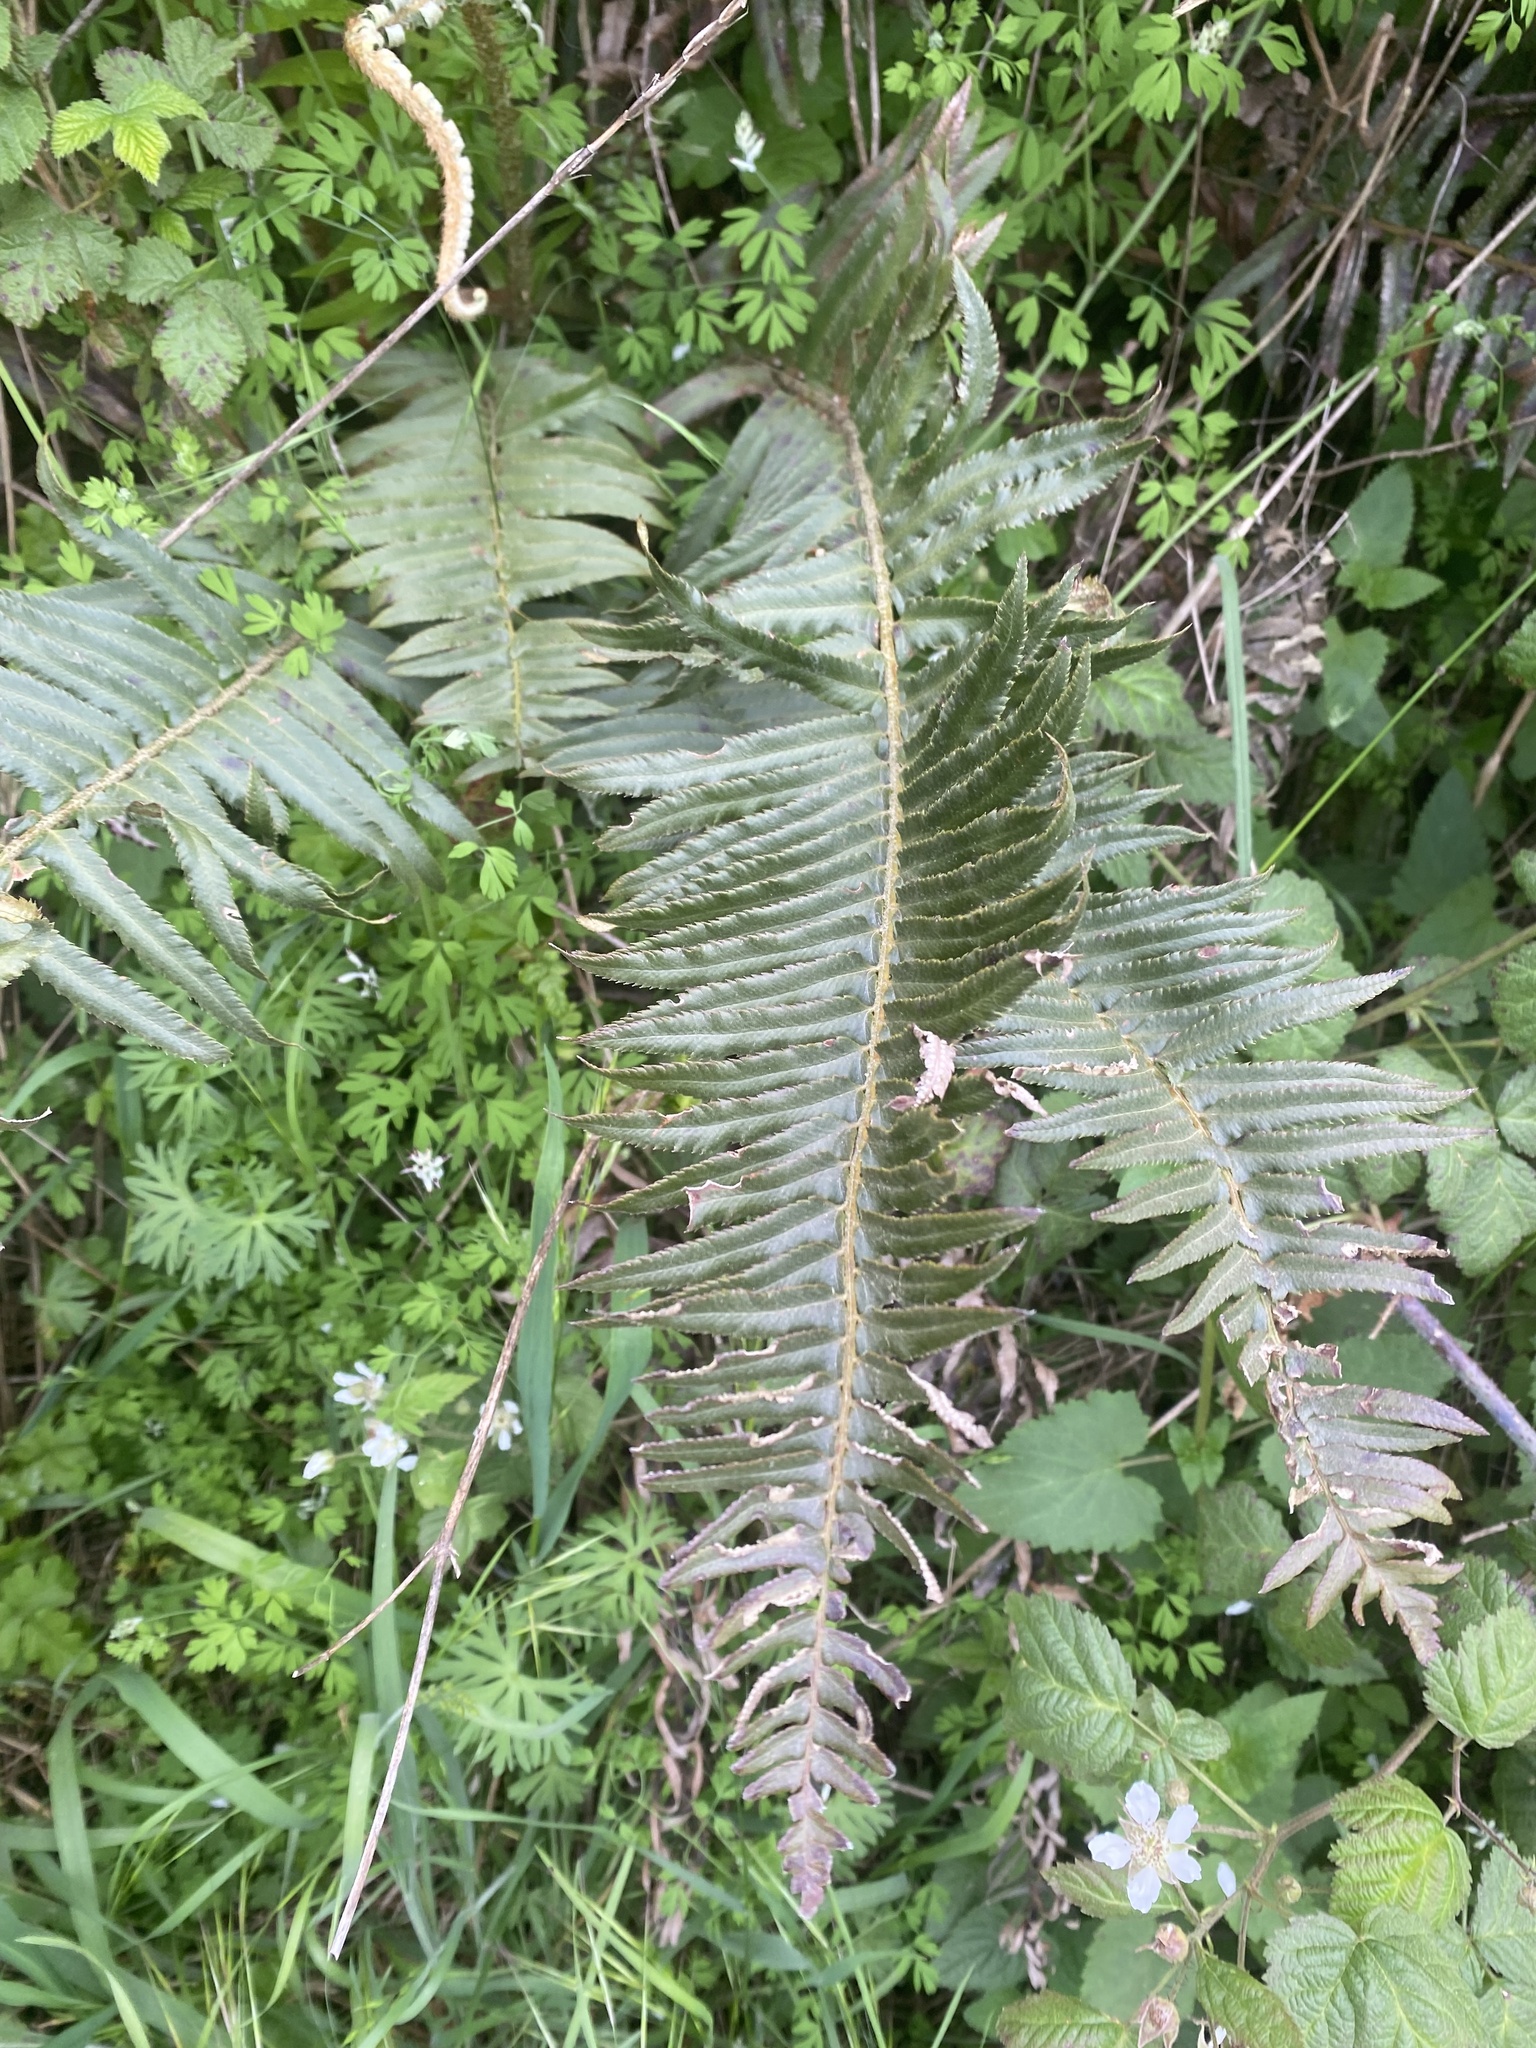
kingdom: Plantae
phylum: Tracheophyta
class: Polypodiopsida
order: Polypodiales
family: Dryopteridaceae
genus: Polystichum
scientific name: Polystichum munitum
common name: Western sword-fern
